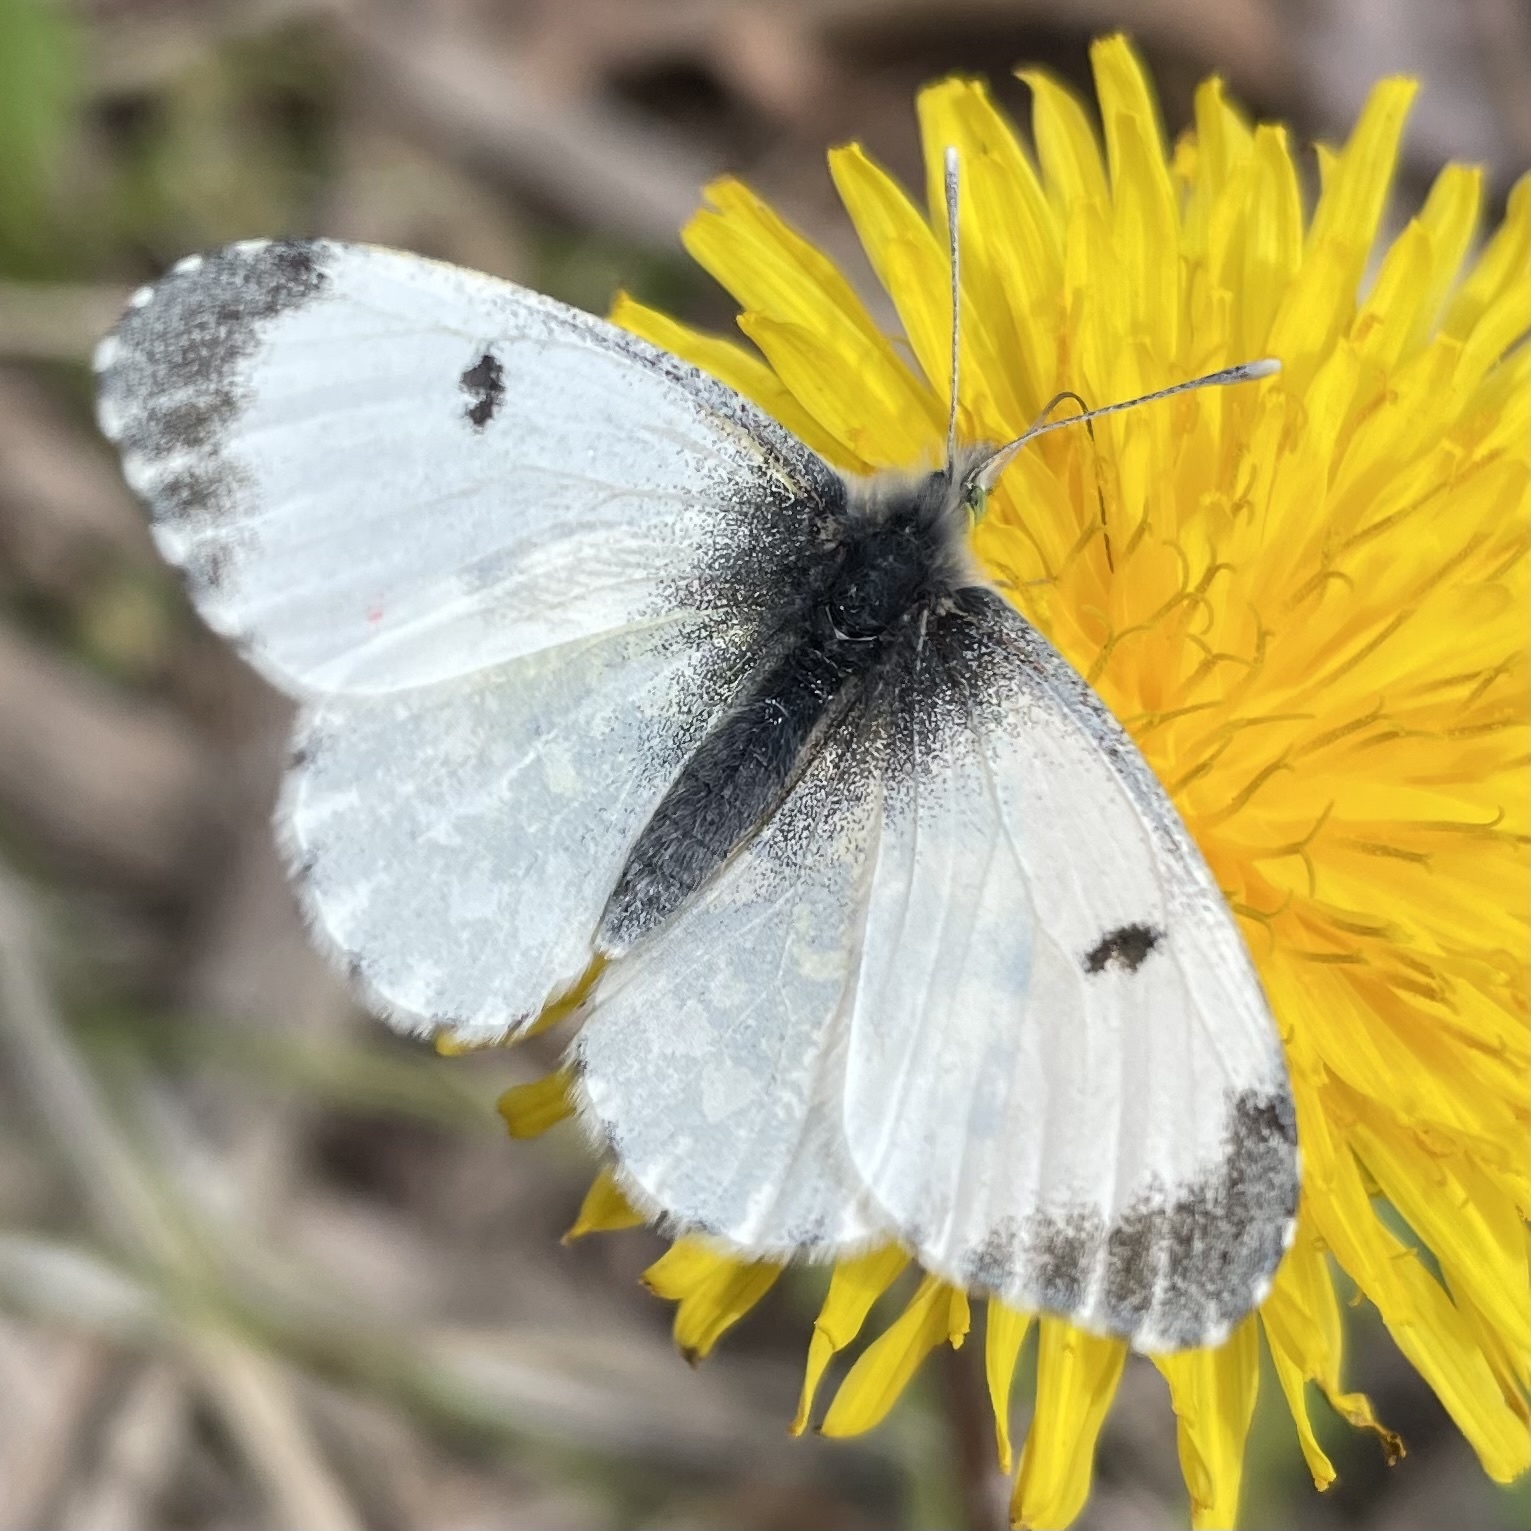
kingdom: Animalia
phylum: Arthropoda
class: Insecta
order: Lepidoptera
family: Pieridae
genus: Anthocharis
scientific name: Anthocharis cardamines
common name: Orange-tip
